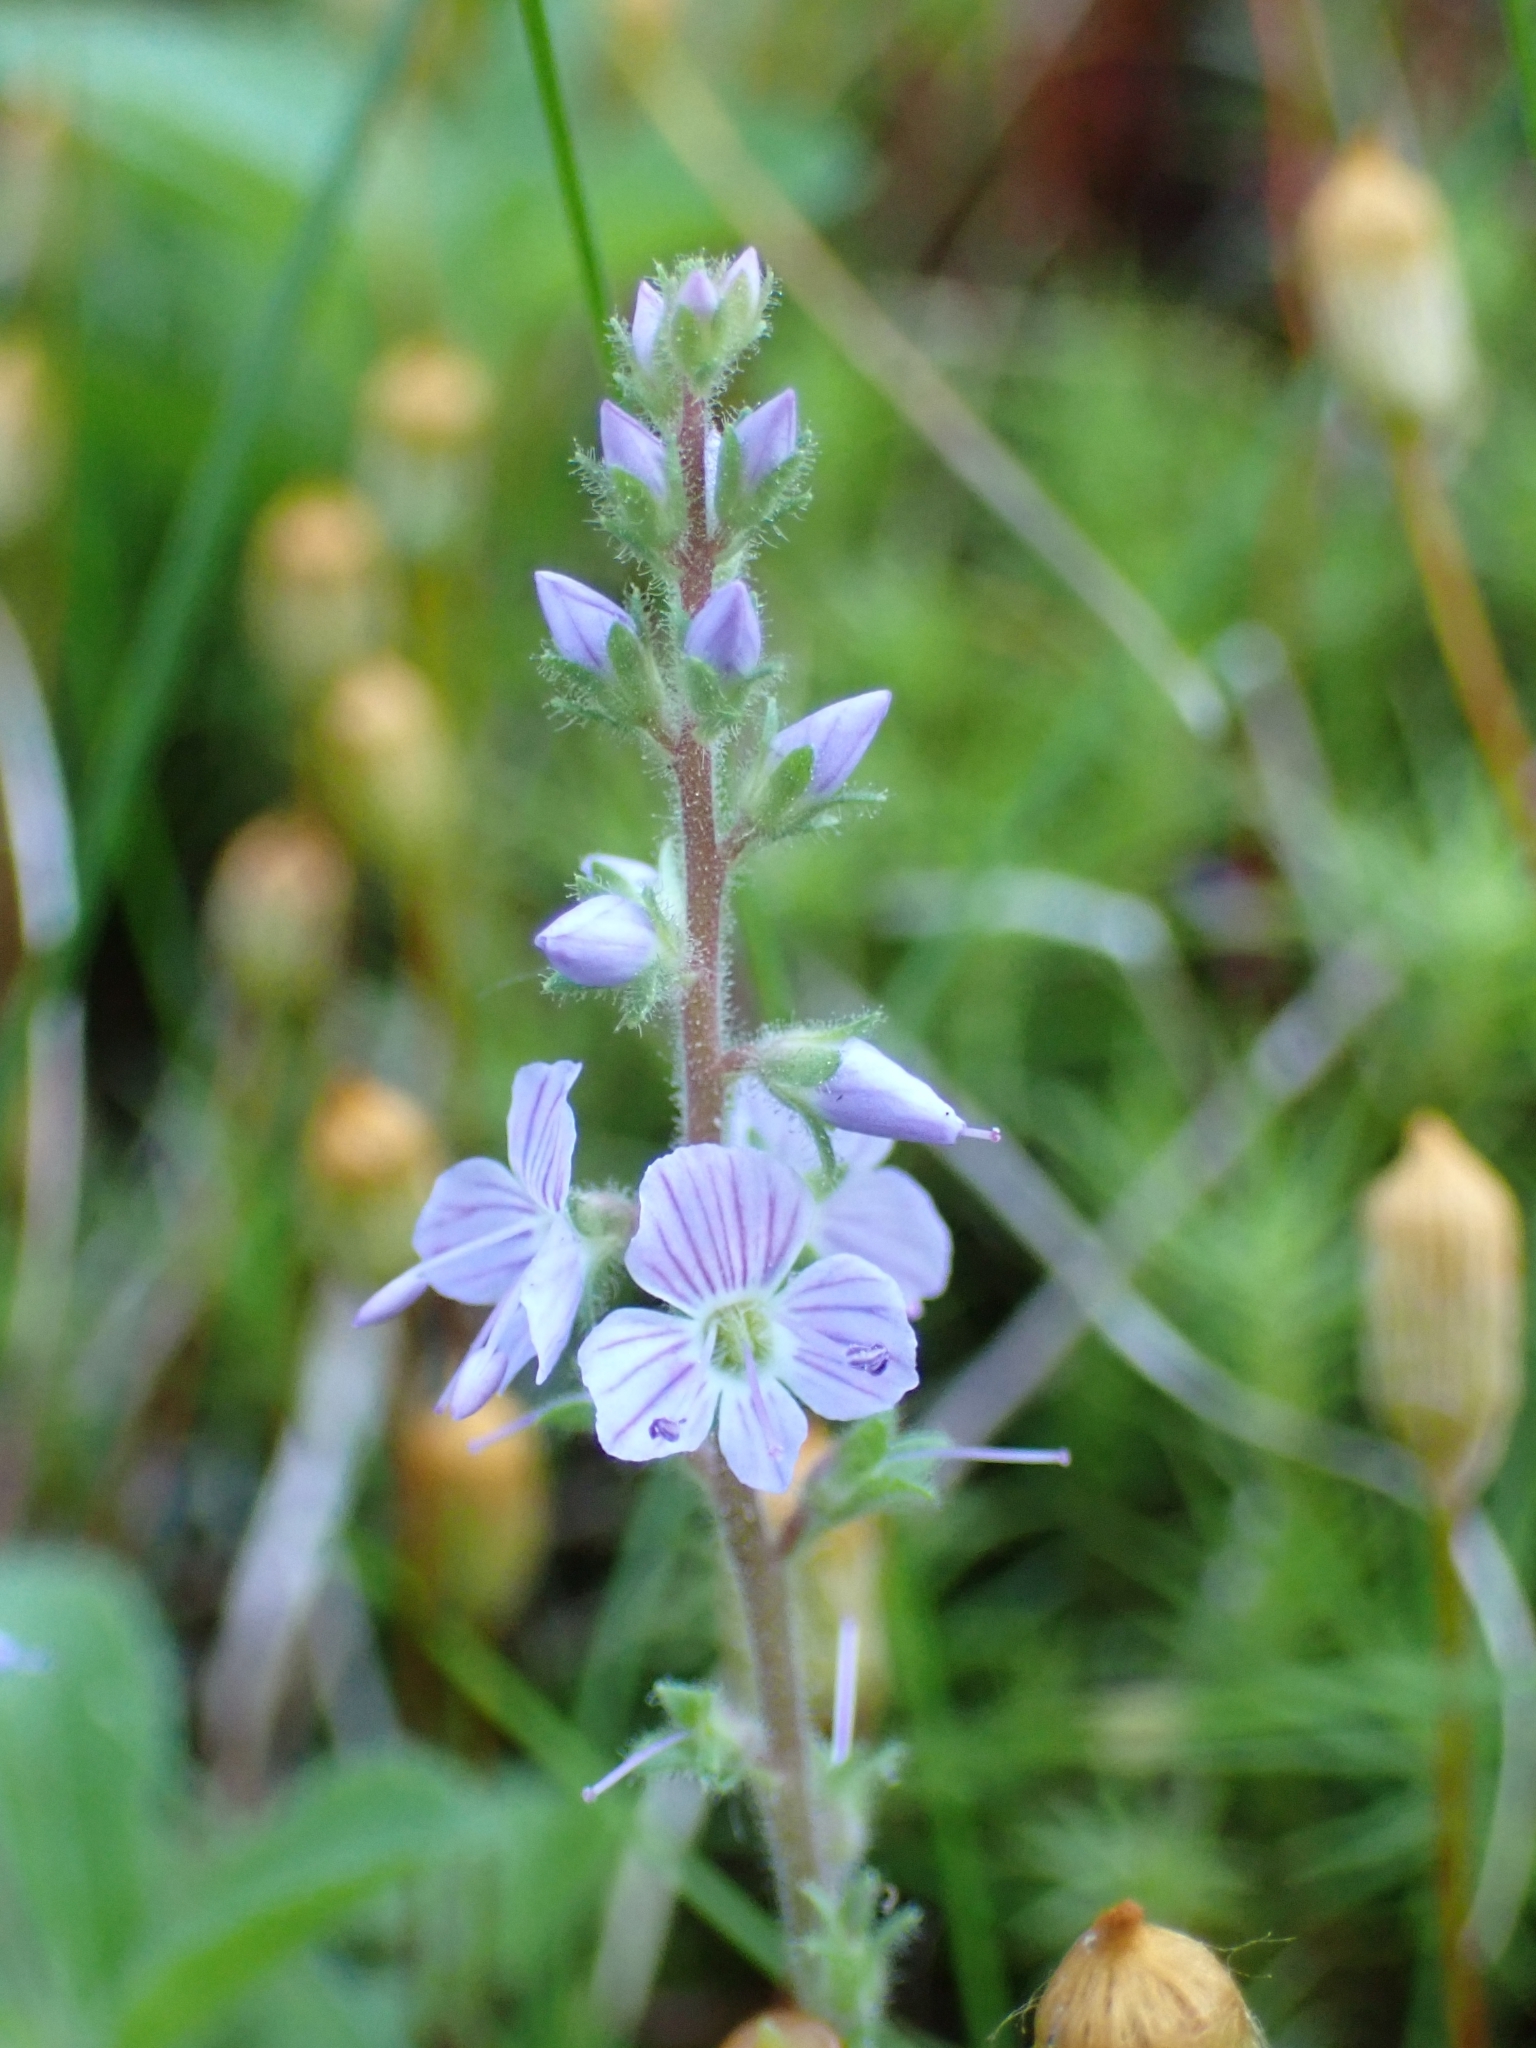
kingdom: Plantae
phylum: Tracheophyta
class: Magnoliopsida
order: Lamiales
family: Plantaginaceae
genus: Veronica
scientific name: Veronica officinalis
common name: Common speedwell
